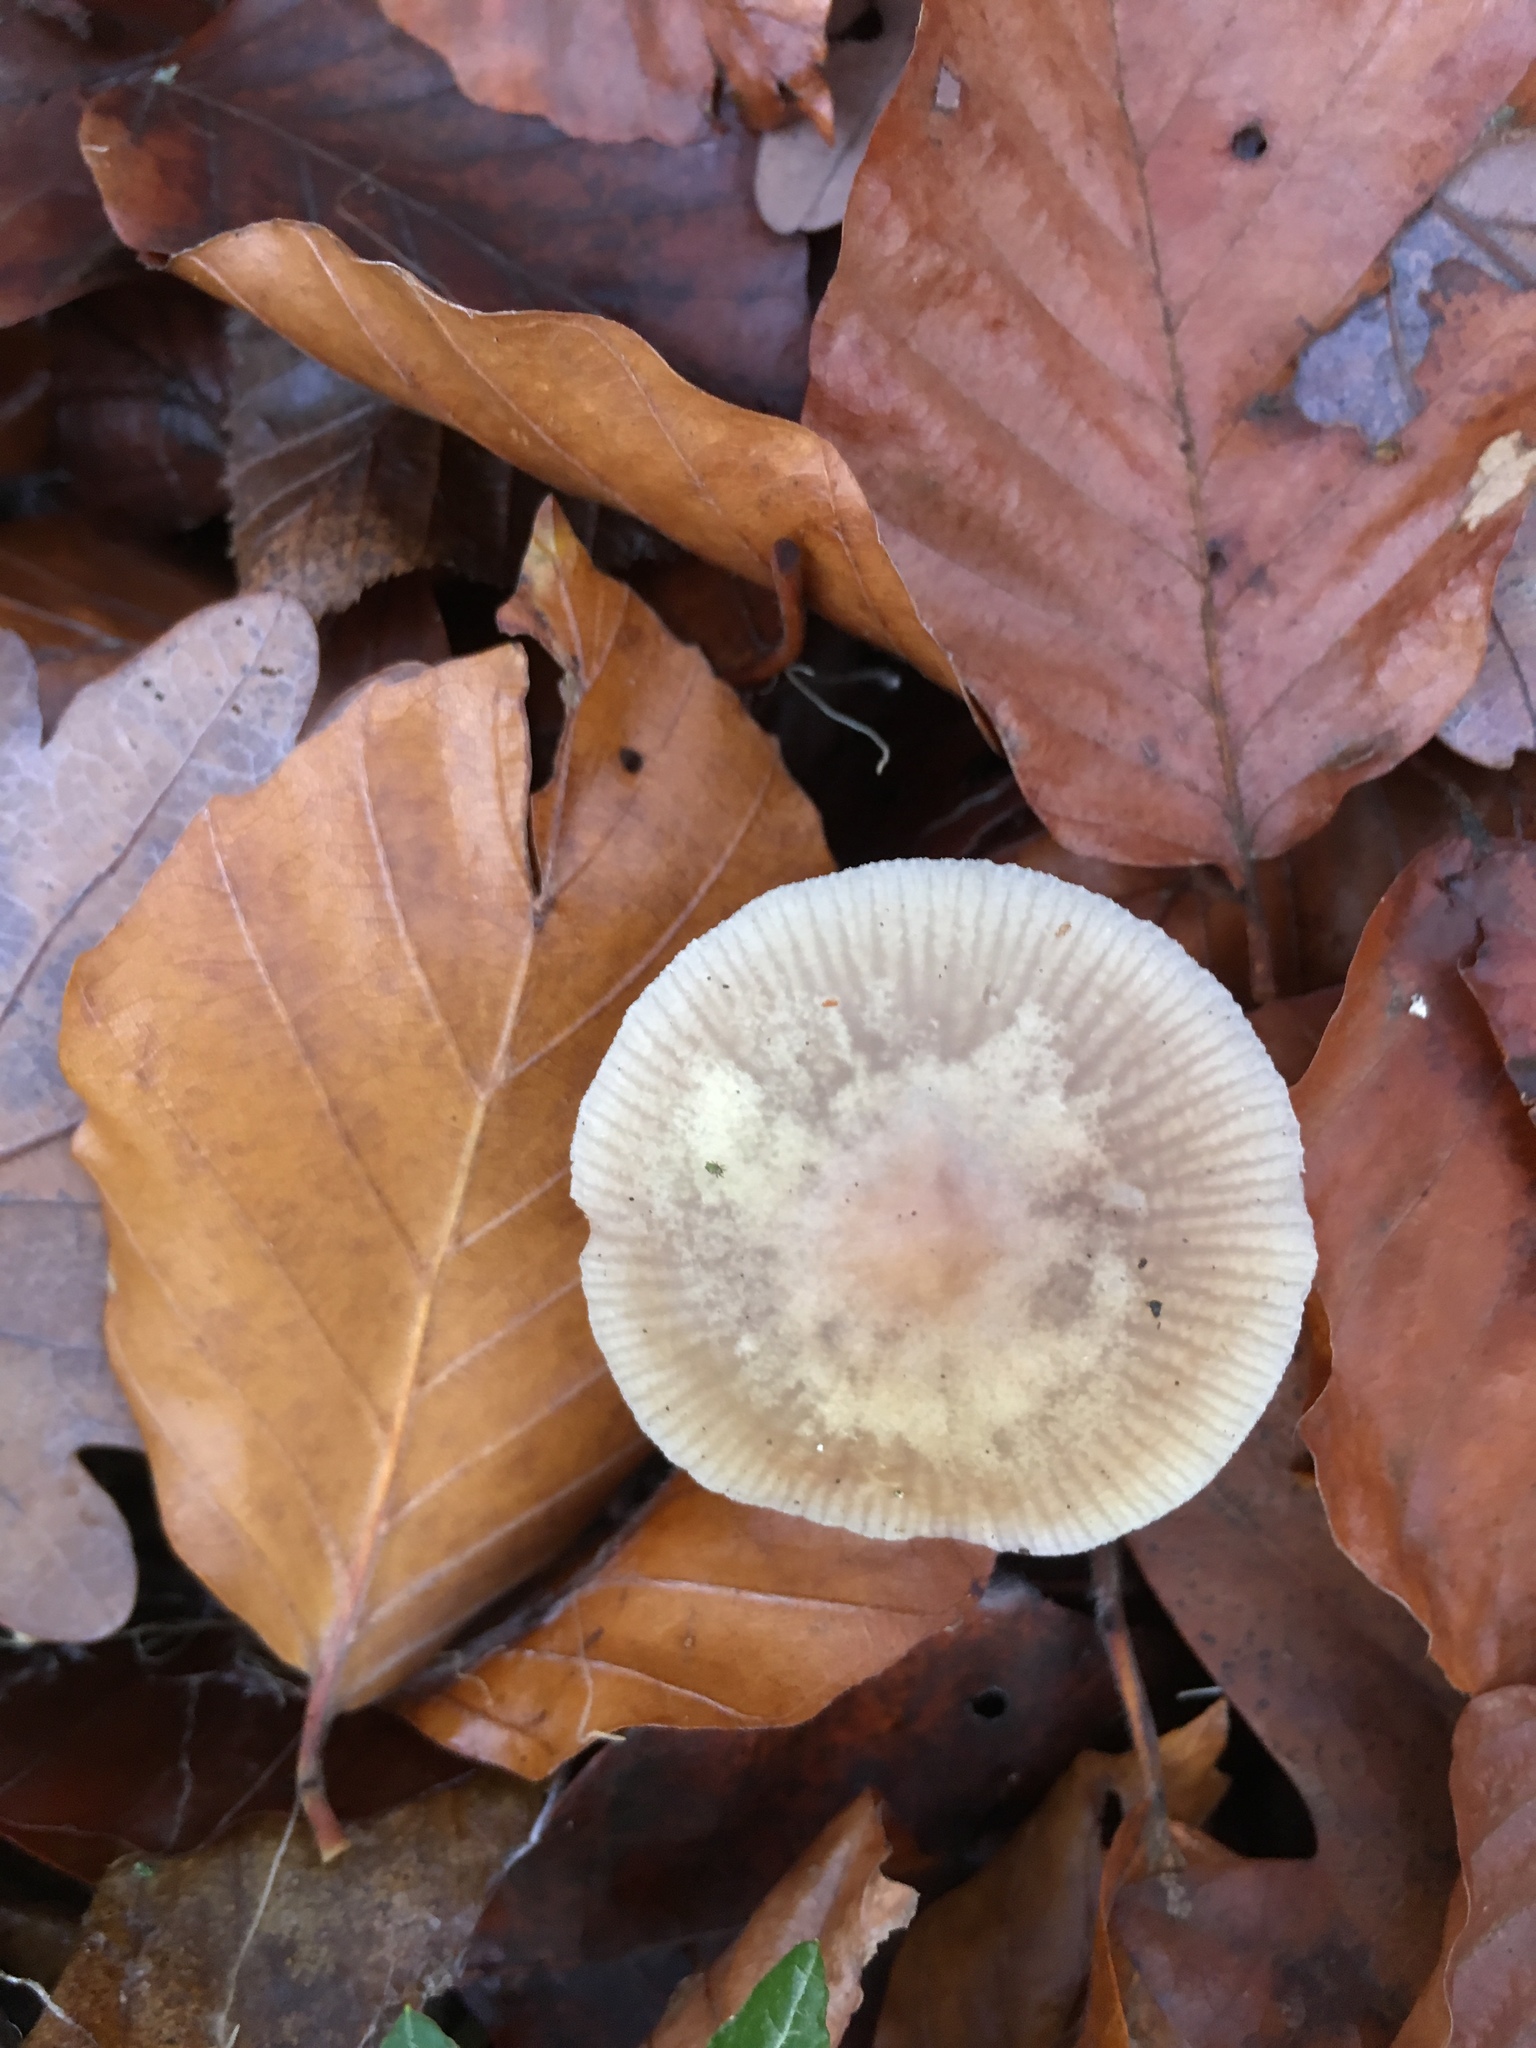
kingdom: Fungi
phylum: Basidiomycota
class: Agaricomycetes
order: Agaricales
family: Mycenaceae
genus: Mycena
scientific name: Mycena pura
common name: Lilac bonnet
